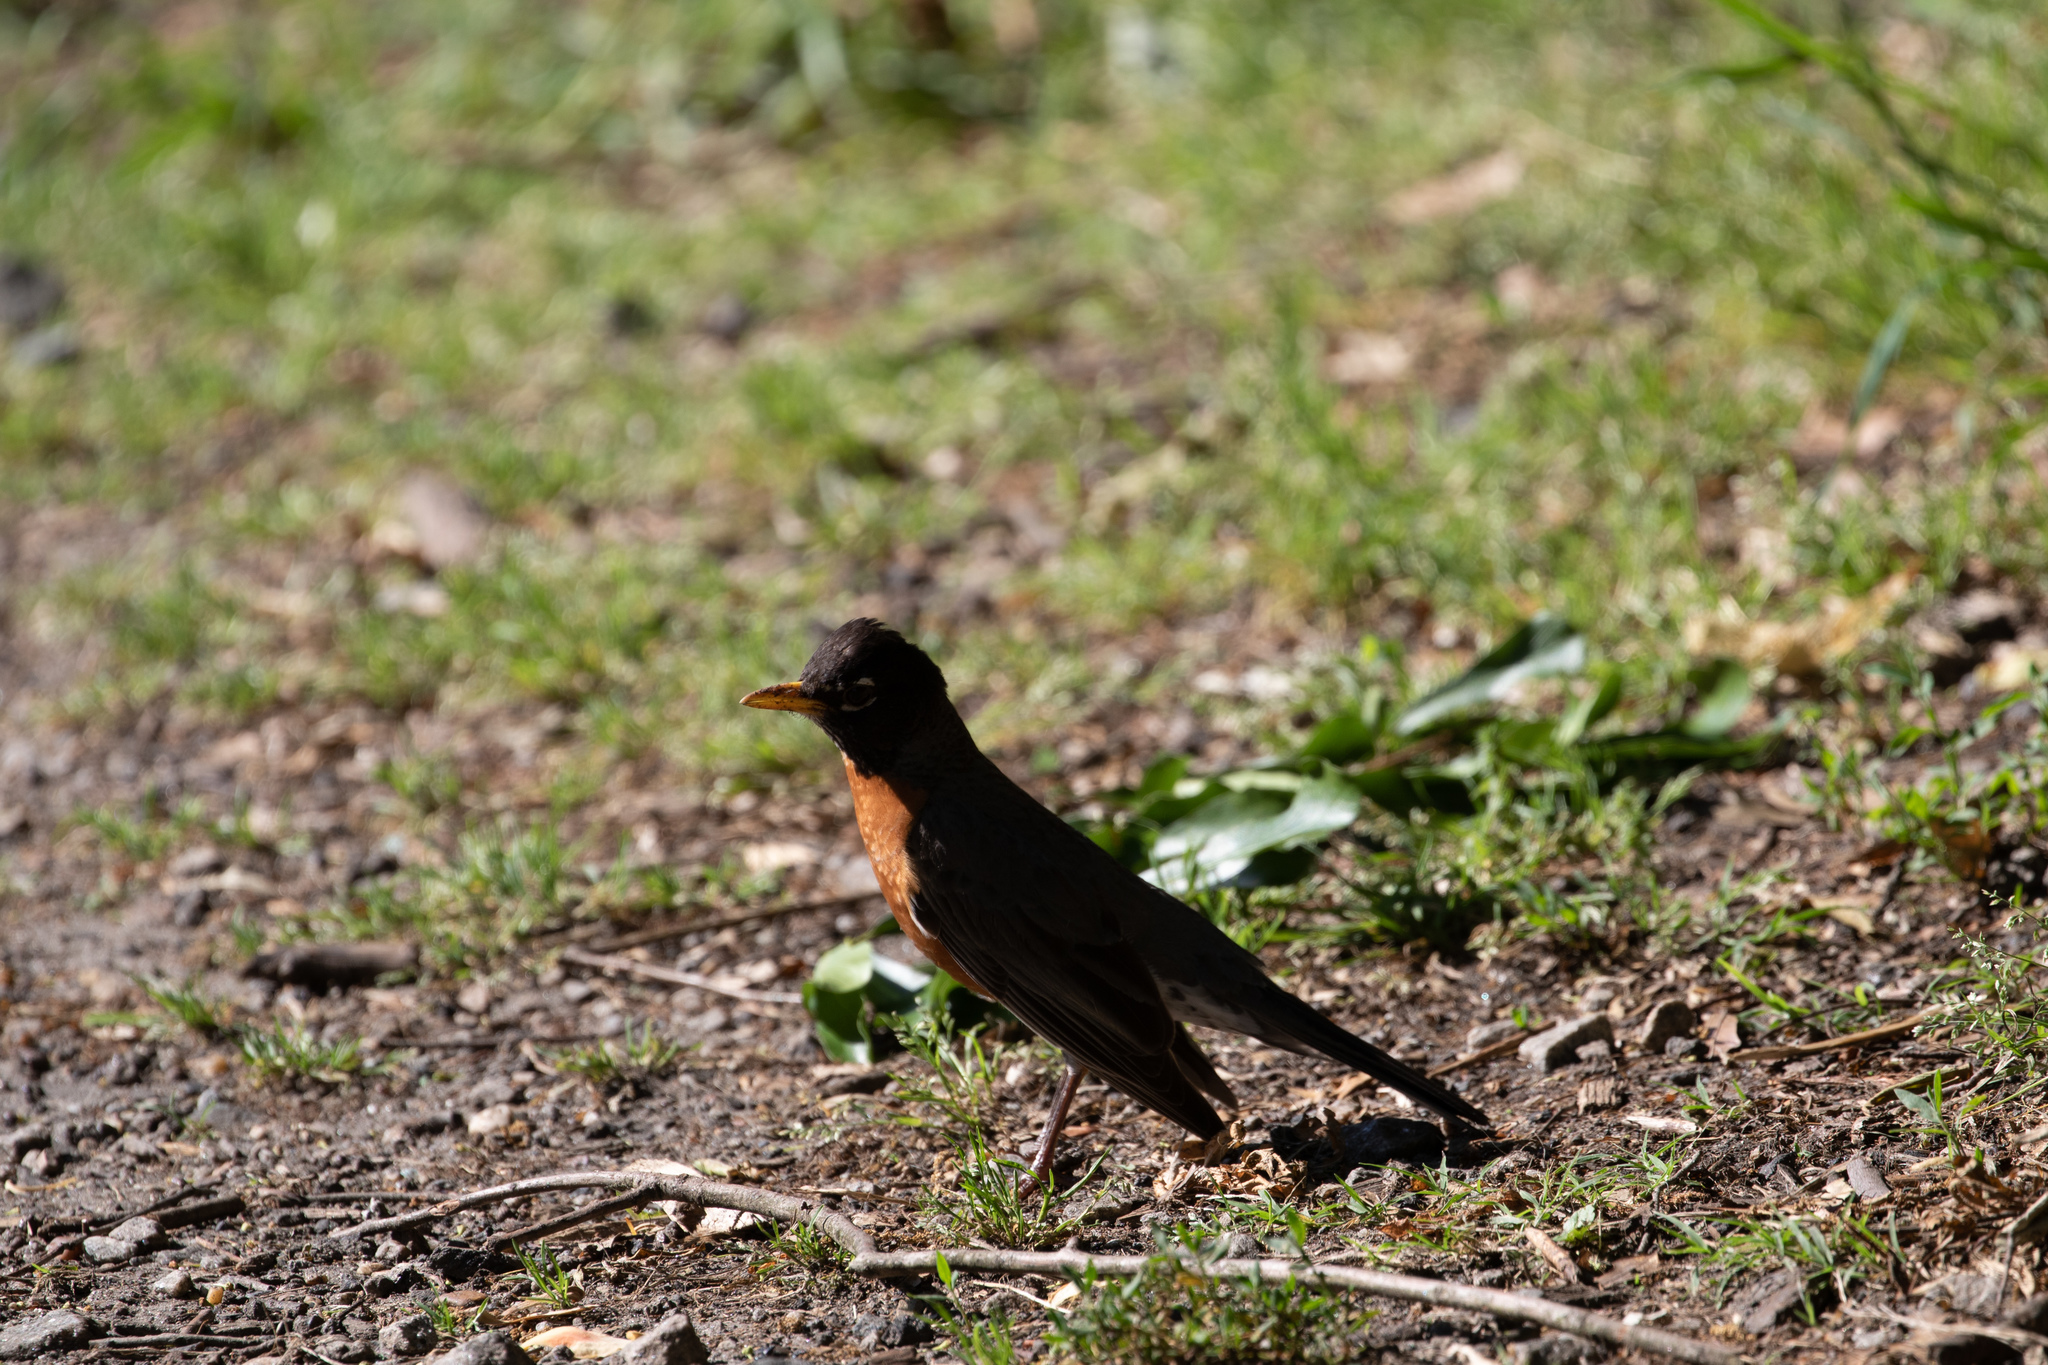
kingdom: Animalia
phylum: Chordata
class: Aves
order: Passeriformes
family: Turdidae
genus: Turdus
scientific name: Turdus migratorius
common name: American robin
